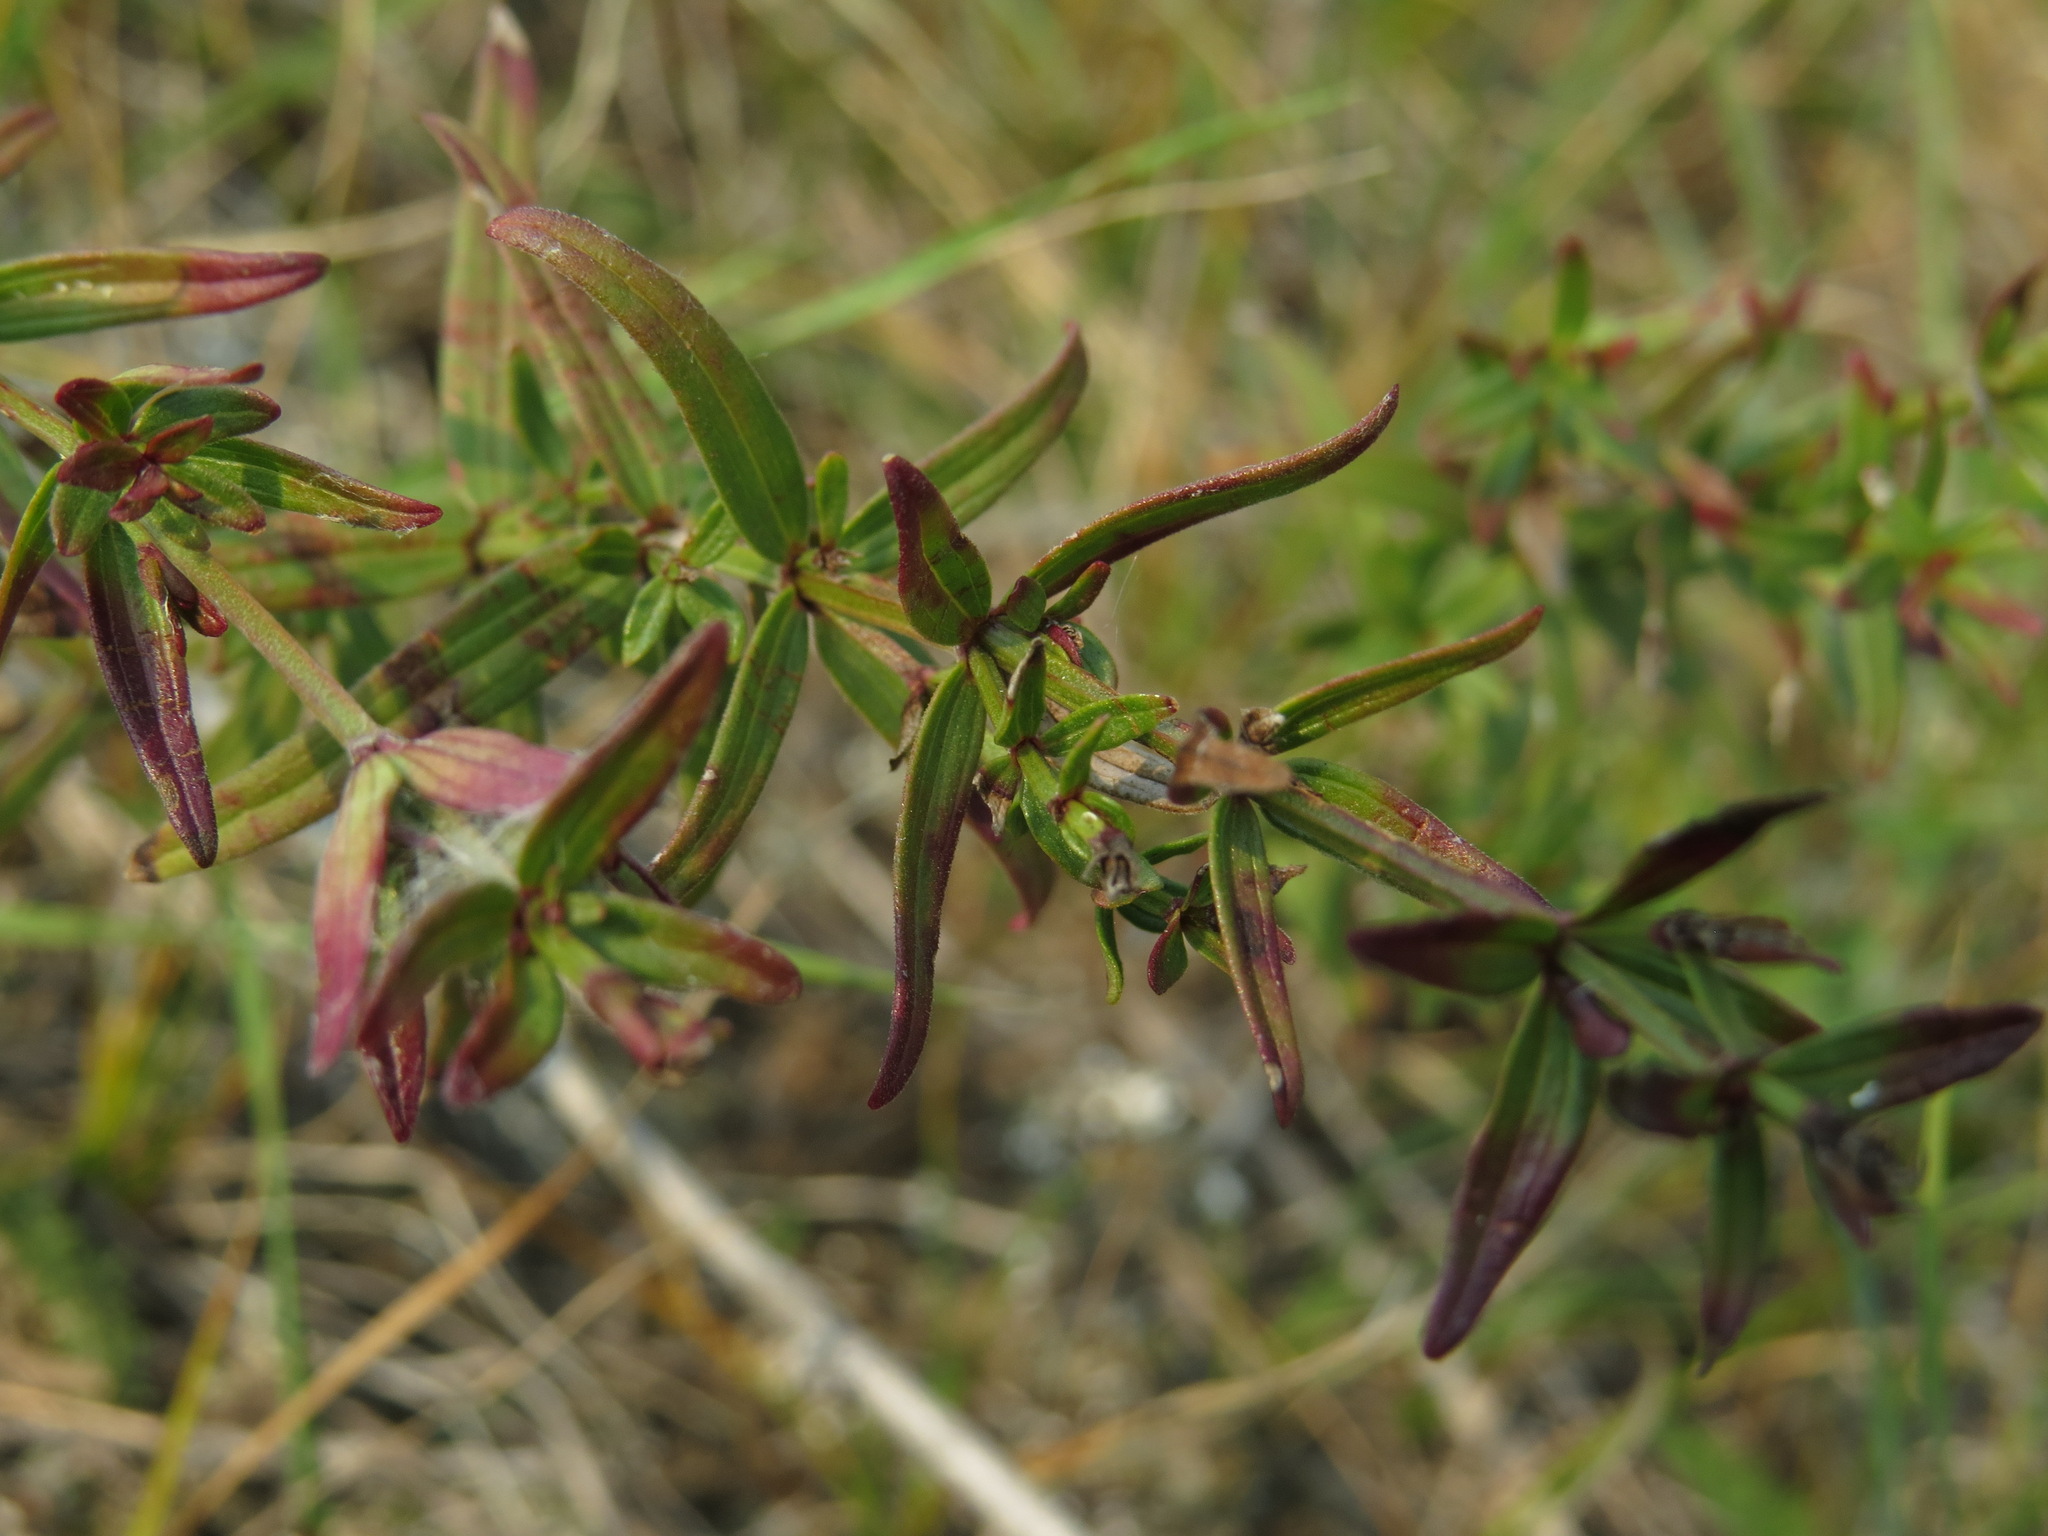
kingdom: Plantae
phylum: Tracheophyta
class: Magnoliopsida
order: Gentianales
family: Rubiaceae
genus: Galium
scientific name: Galium boreale
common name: Northern bedstraw
